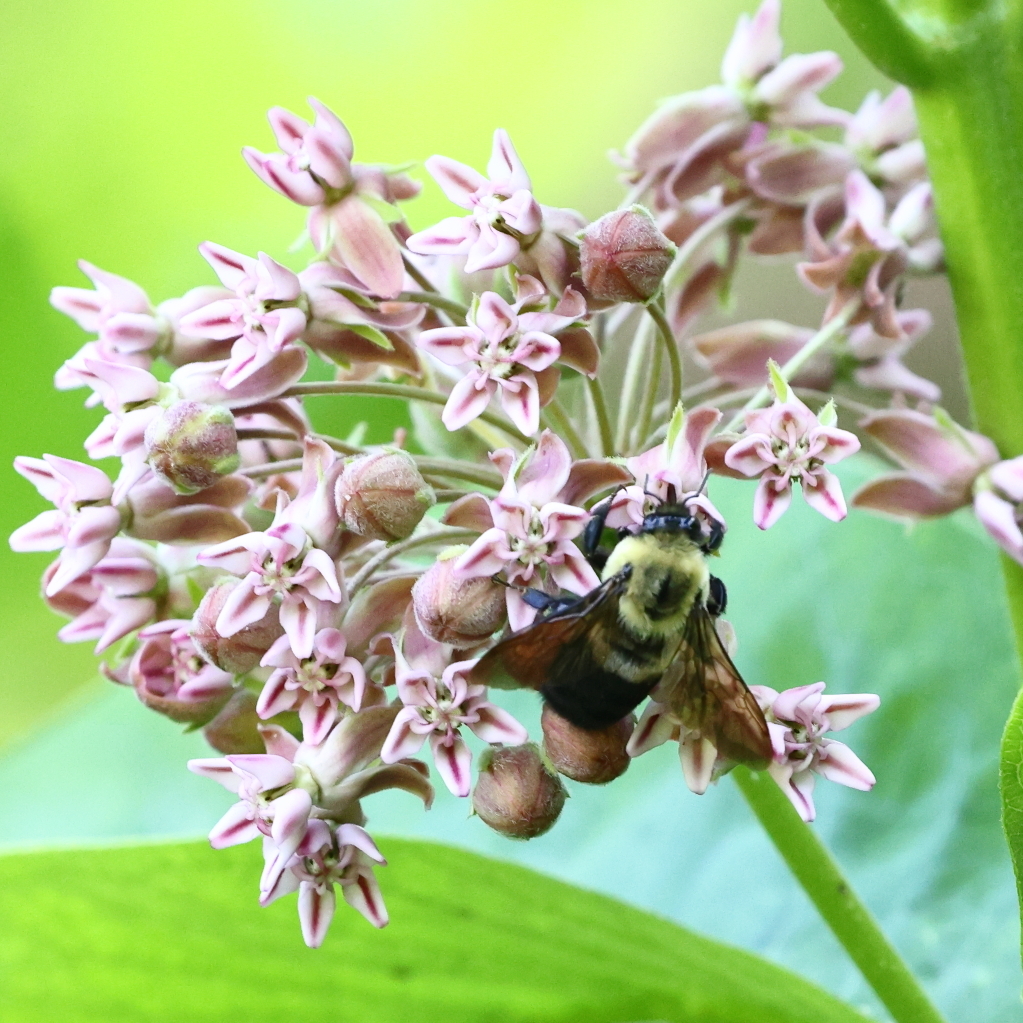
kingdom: Animalia
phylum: Arthropoda
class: Insecta
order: Hymenoptera
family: Apidae
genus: Bombus
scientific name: Bombus griseocollis
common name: Brown-belted bumble bee
